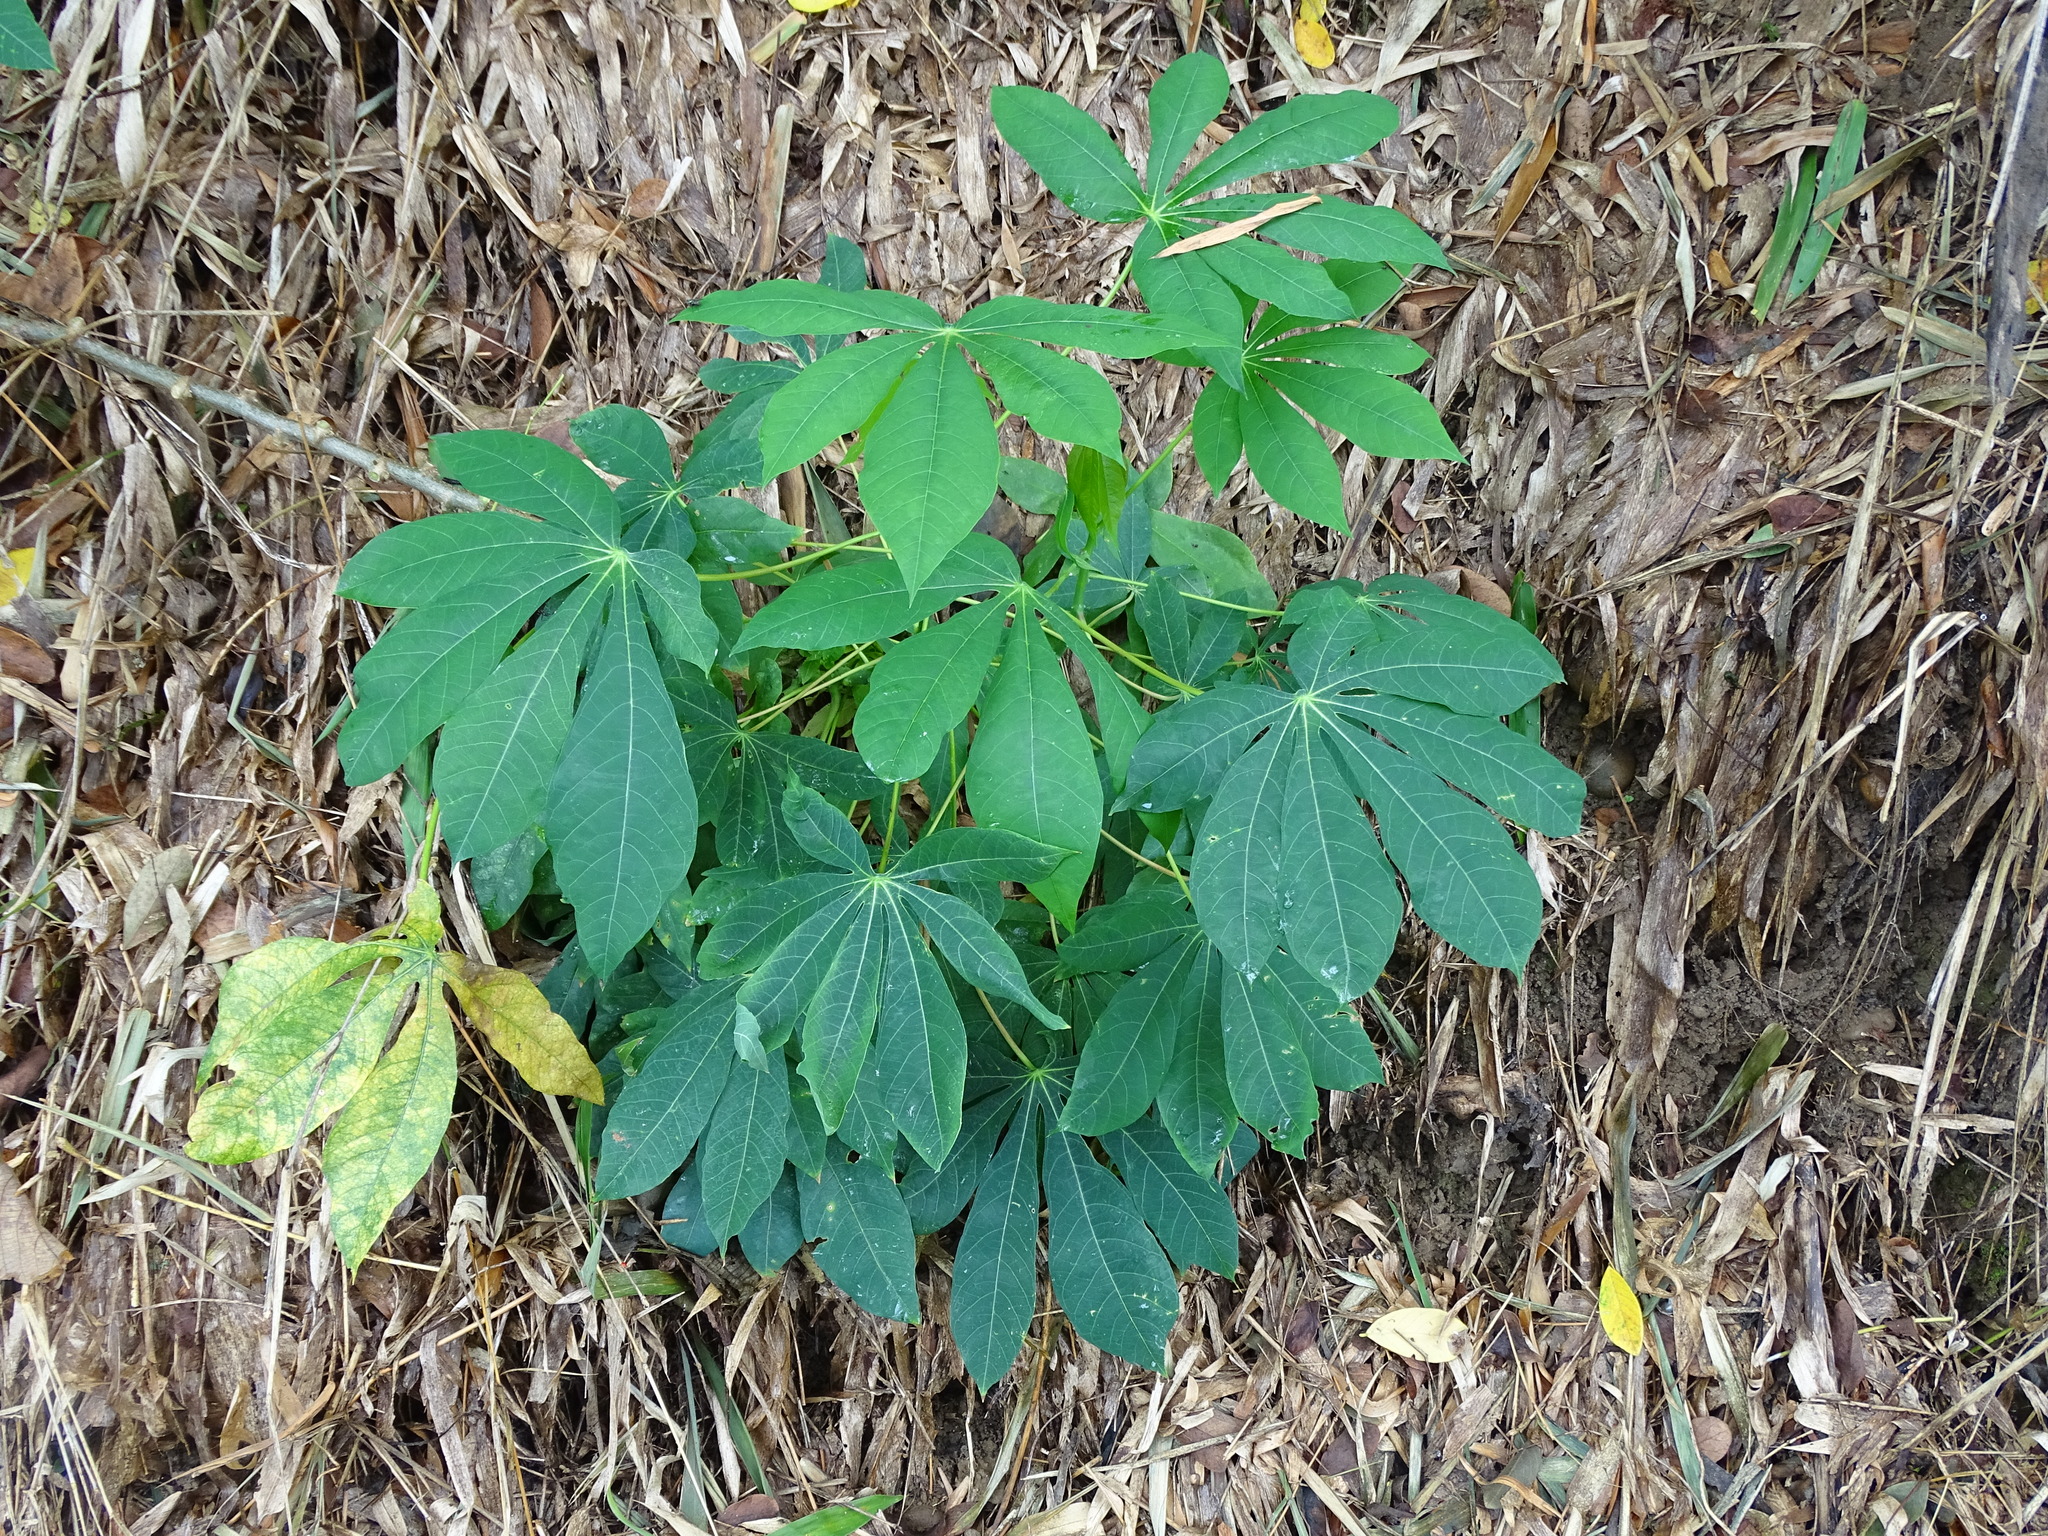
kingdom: Plantae
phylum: Tracheophyta
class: Magnoliopsida
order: Malpighiales
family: Euphorbiaceae
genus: Manihot
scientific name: Manihot esculenta
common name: Cassava
